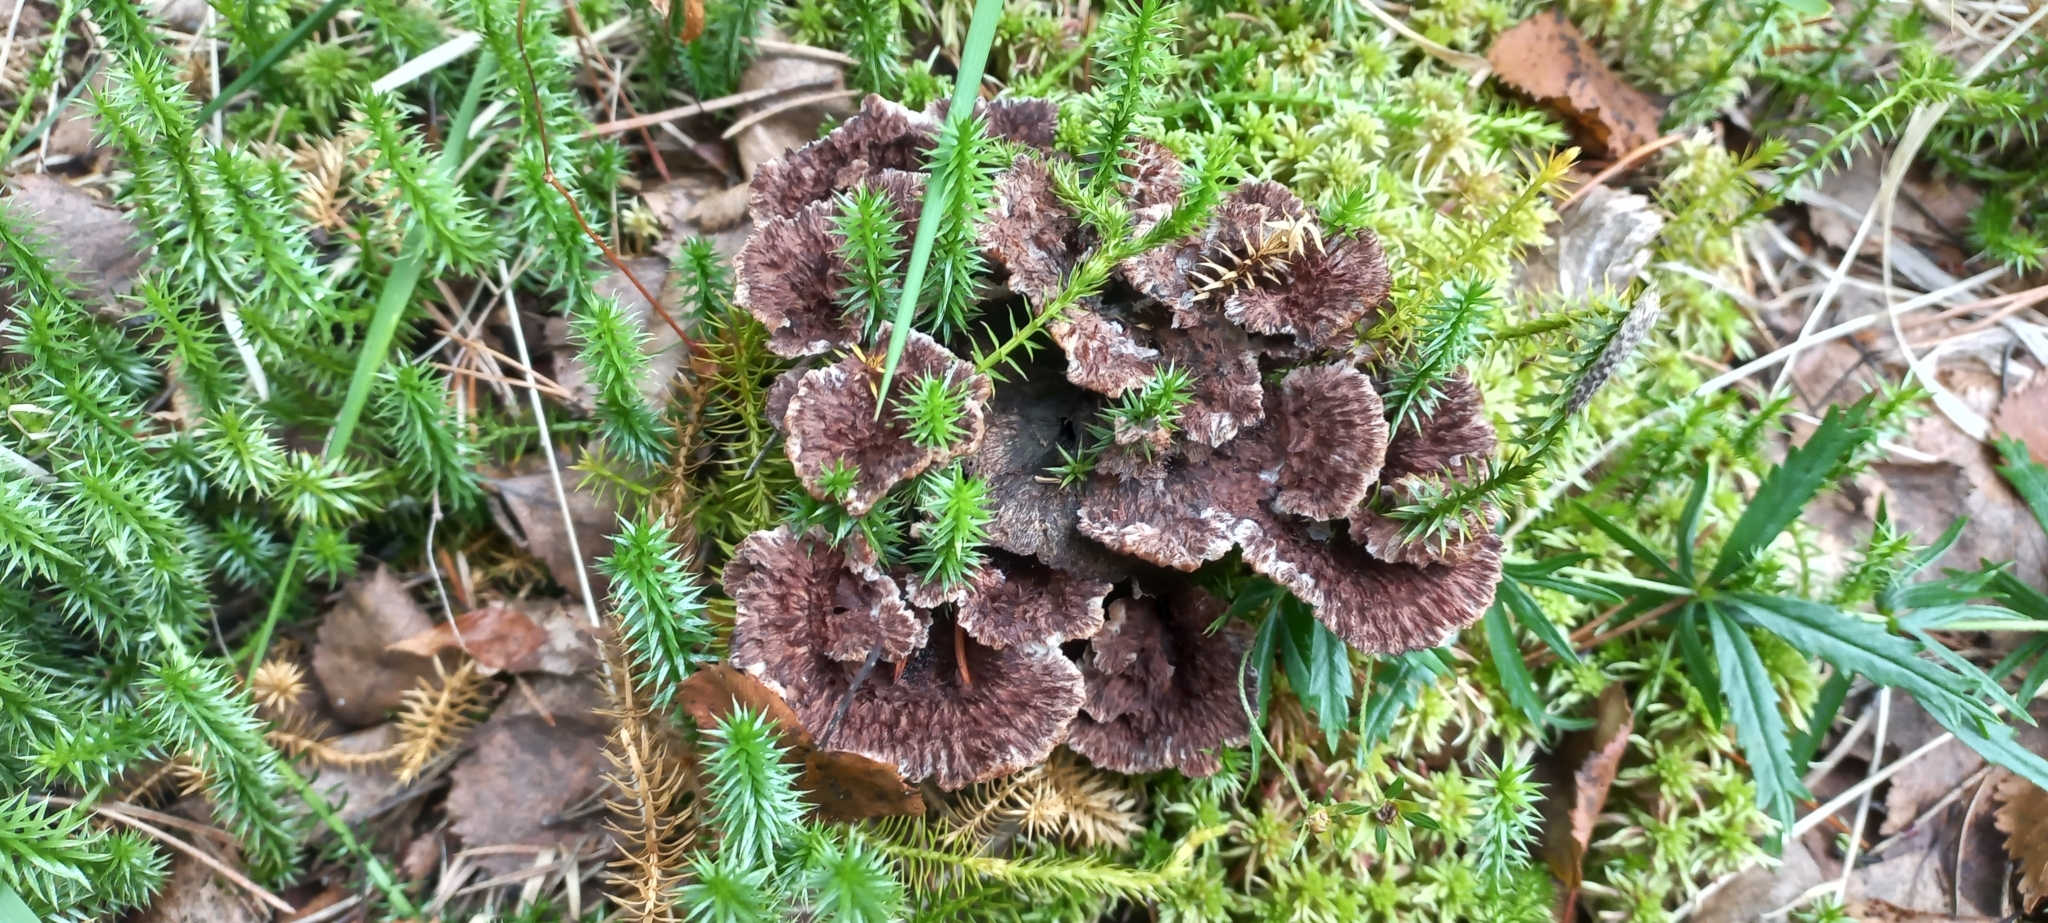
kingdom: Fungi
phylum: Basidiomycota
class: Agaricomycetes
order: Thelephorales
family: Thelephoraceae
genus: Thelephora
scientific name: Thelephora terrestris
